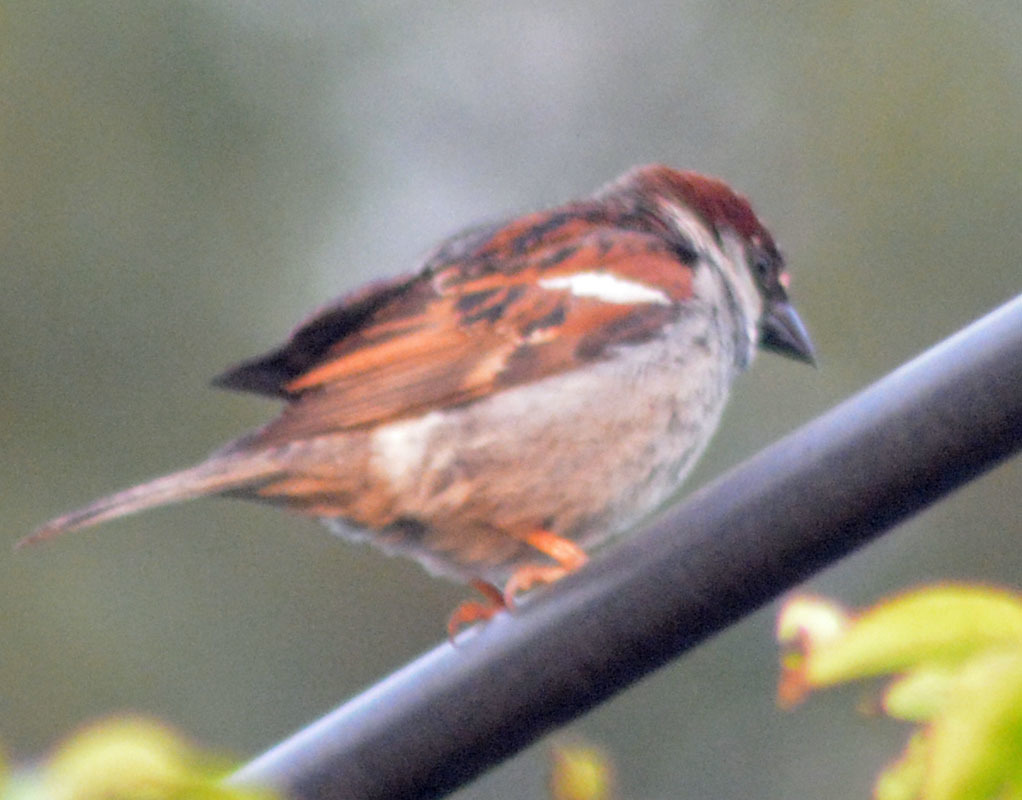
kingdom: Animalia
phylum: Chordata
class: Aves
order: Passeriformes
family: Passeridae
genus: Passer
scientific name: Passer domesticus
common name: House sparrow
